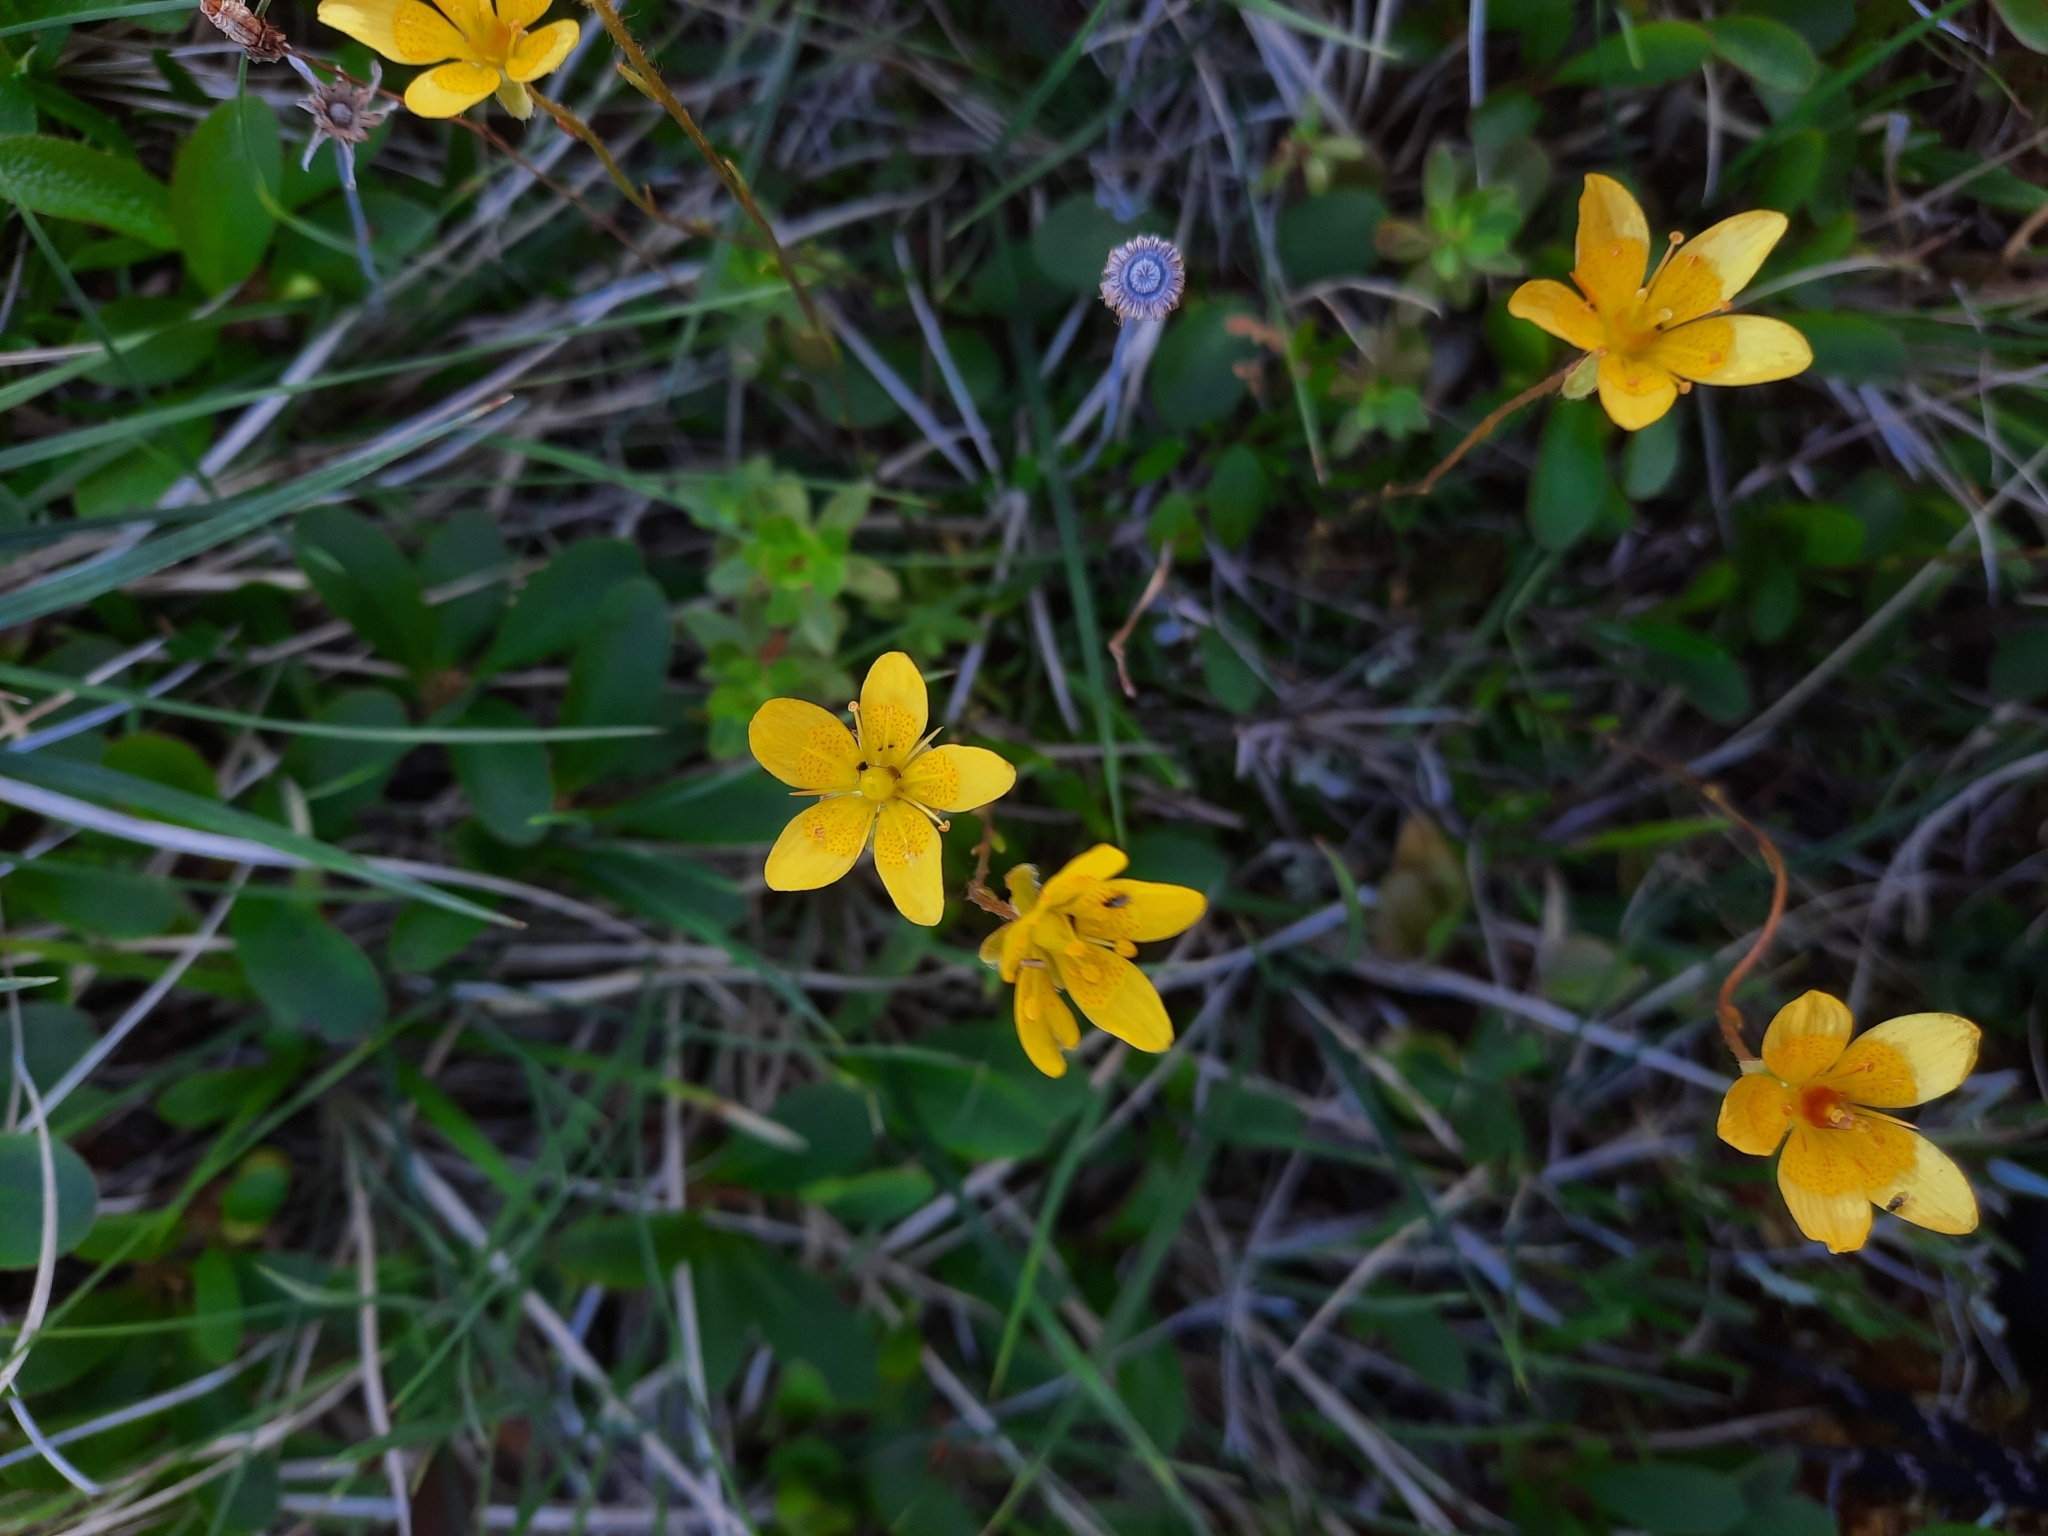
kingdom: Plantae
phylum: Tracheophyta
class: Magnoliopsida
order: Saxifragales
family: Saxifragaceae
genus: Saxifraga
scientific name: Saxifraga hirculus
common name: Yellow marsh saxifrage
